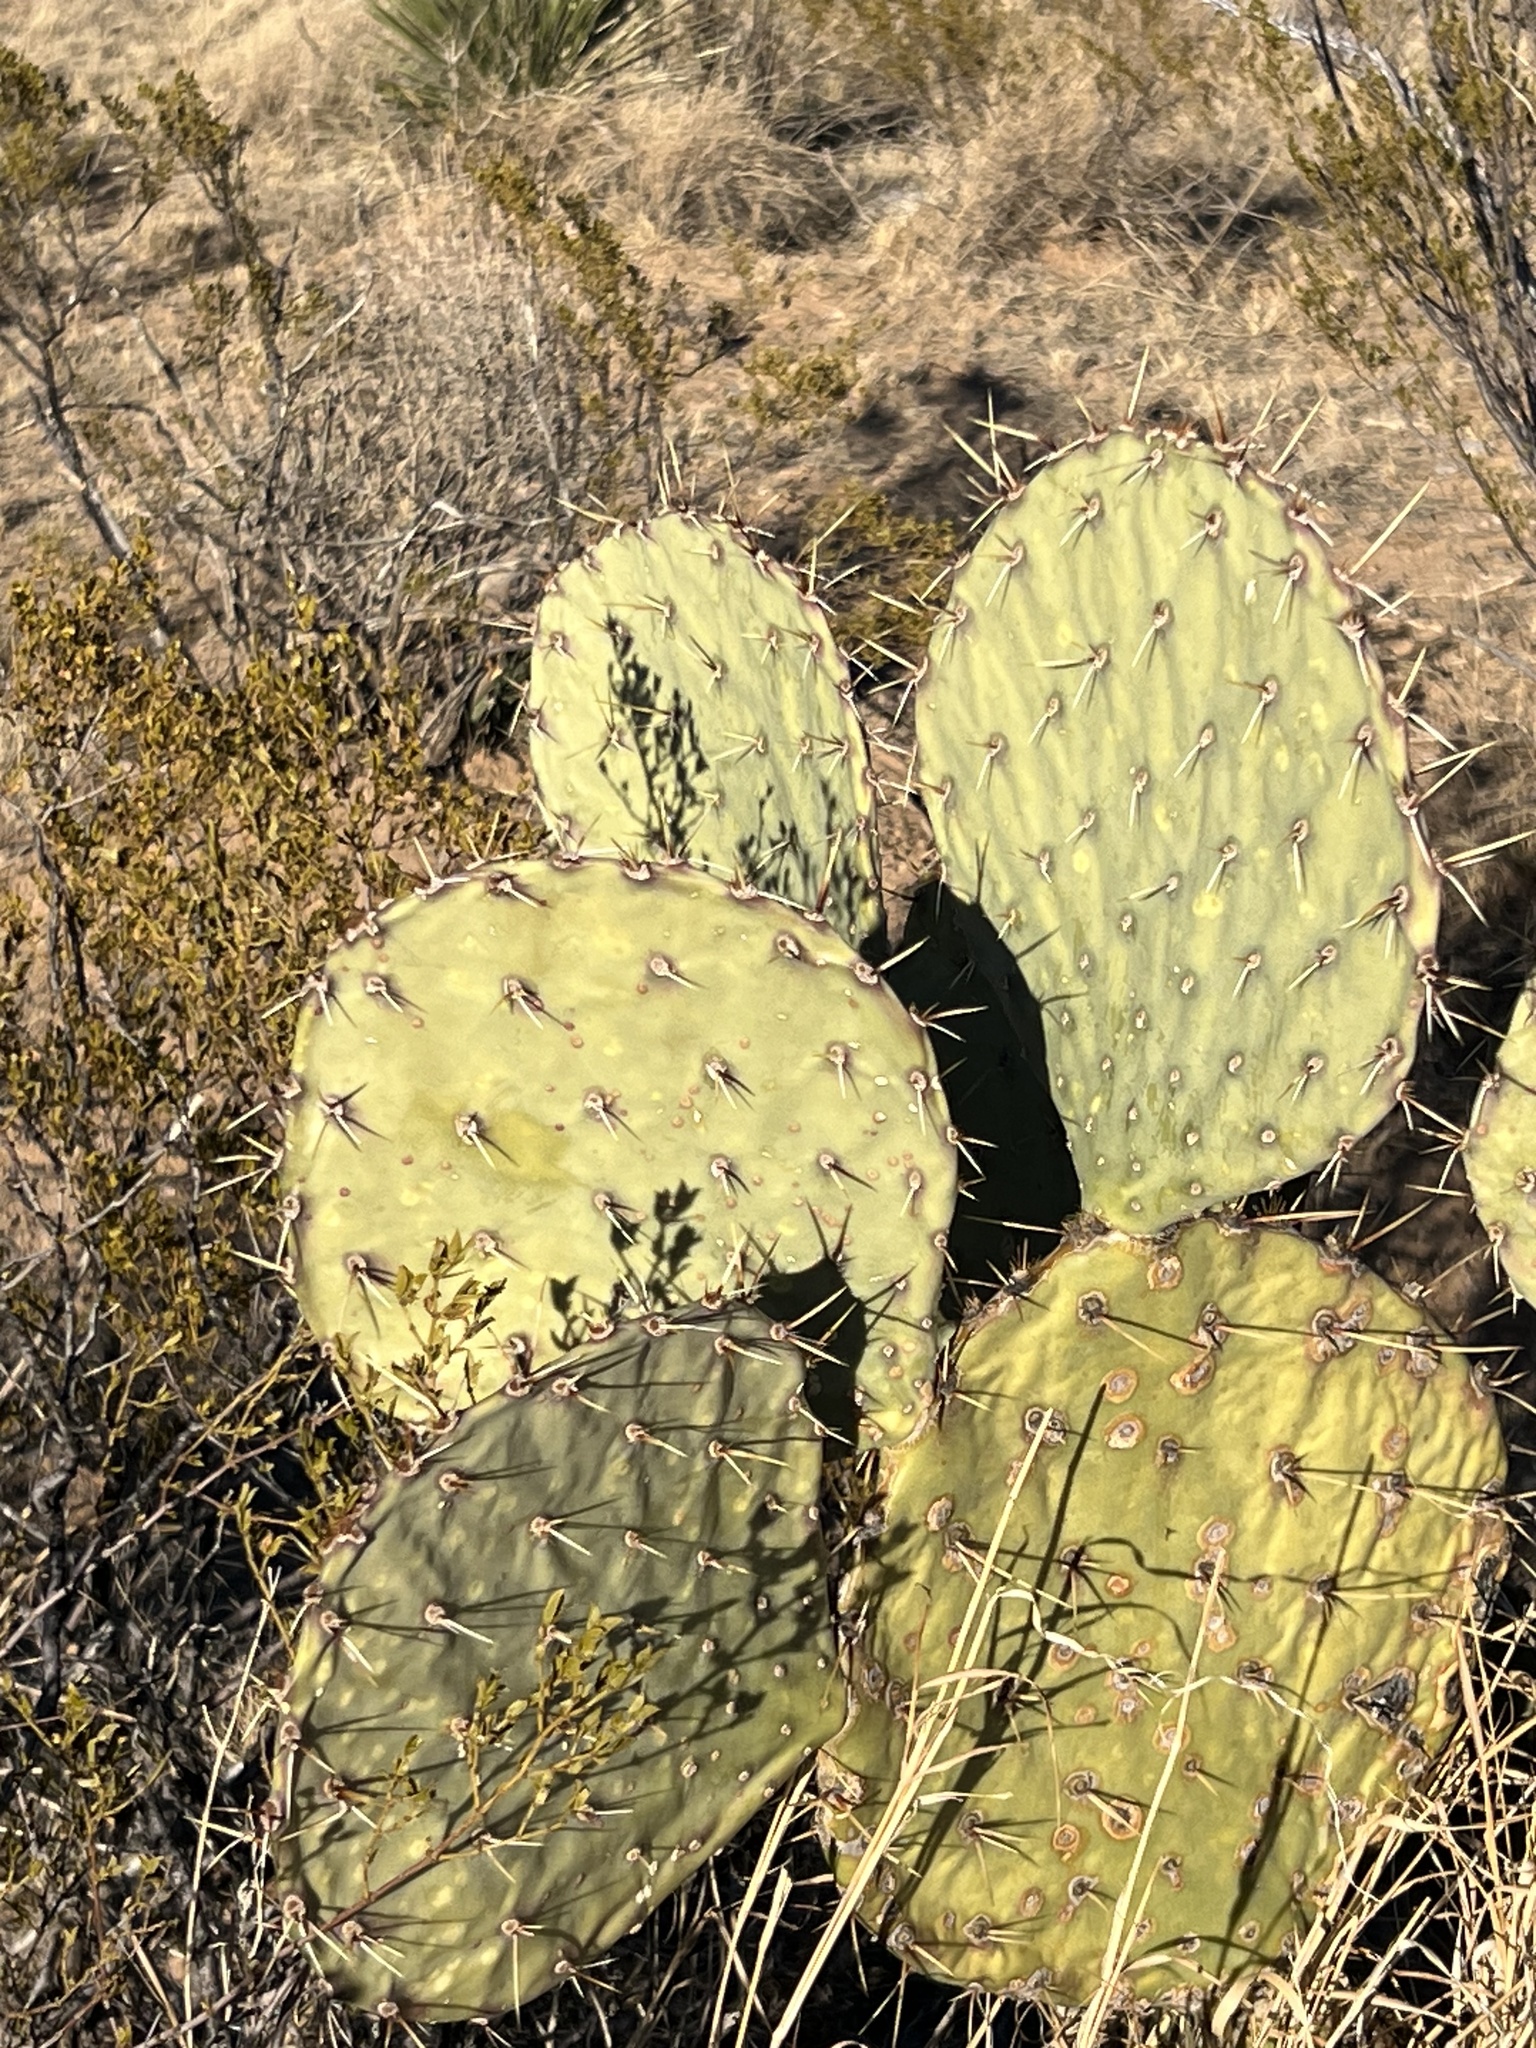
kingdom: Plantae
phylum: Tracheophyta
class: Magnoliopsida
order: Caryophyllales
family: Cactaceae
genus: Opuntia
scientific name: Opuntia engelmannii
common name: Cactus-apple
